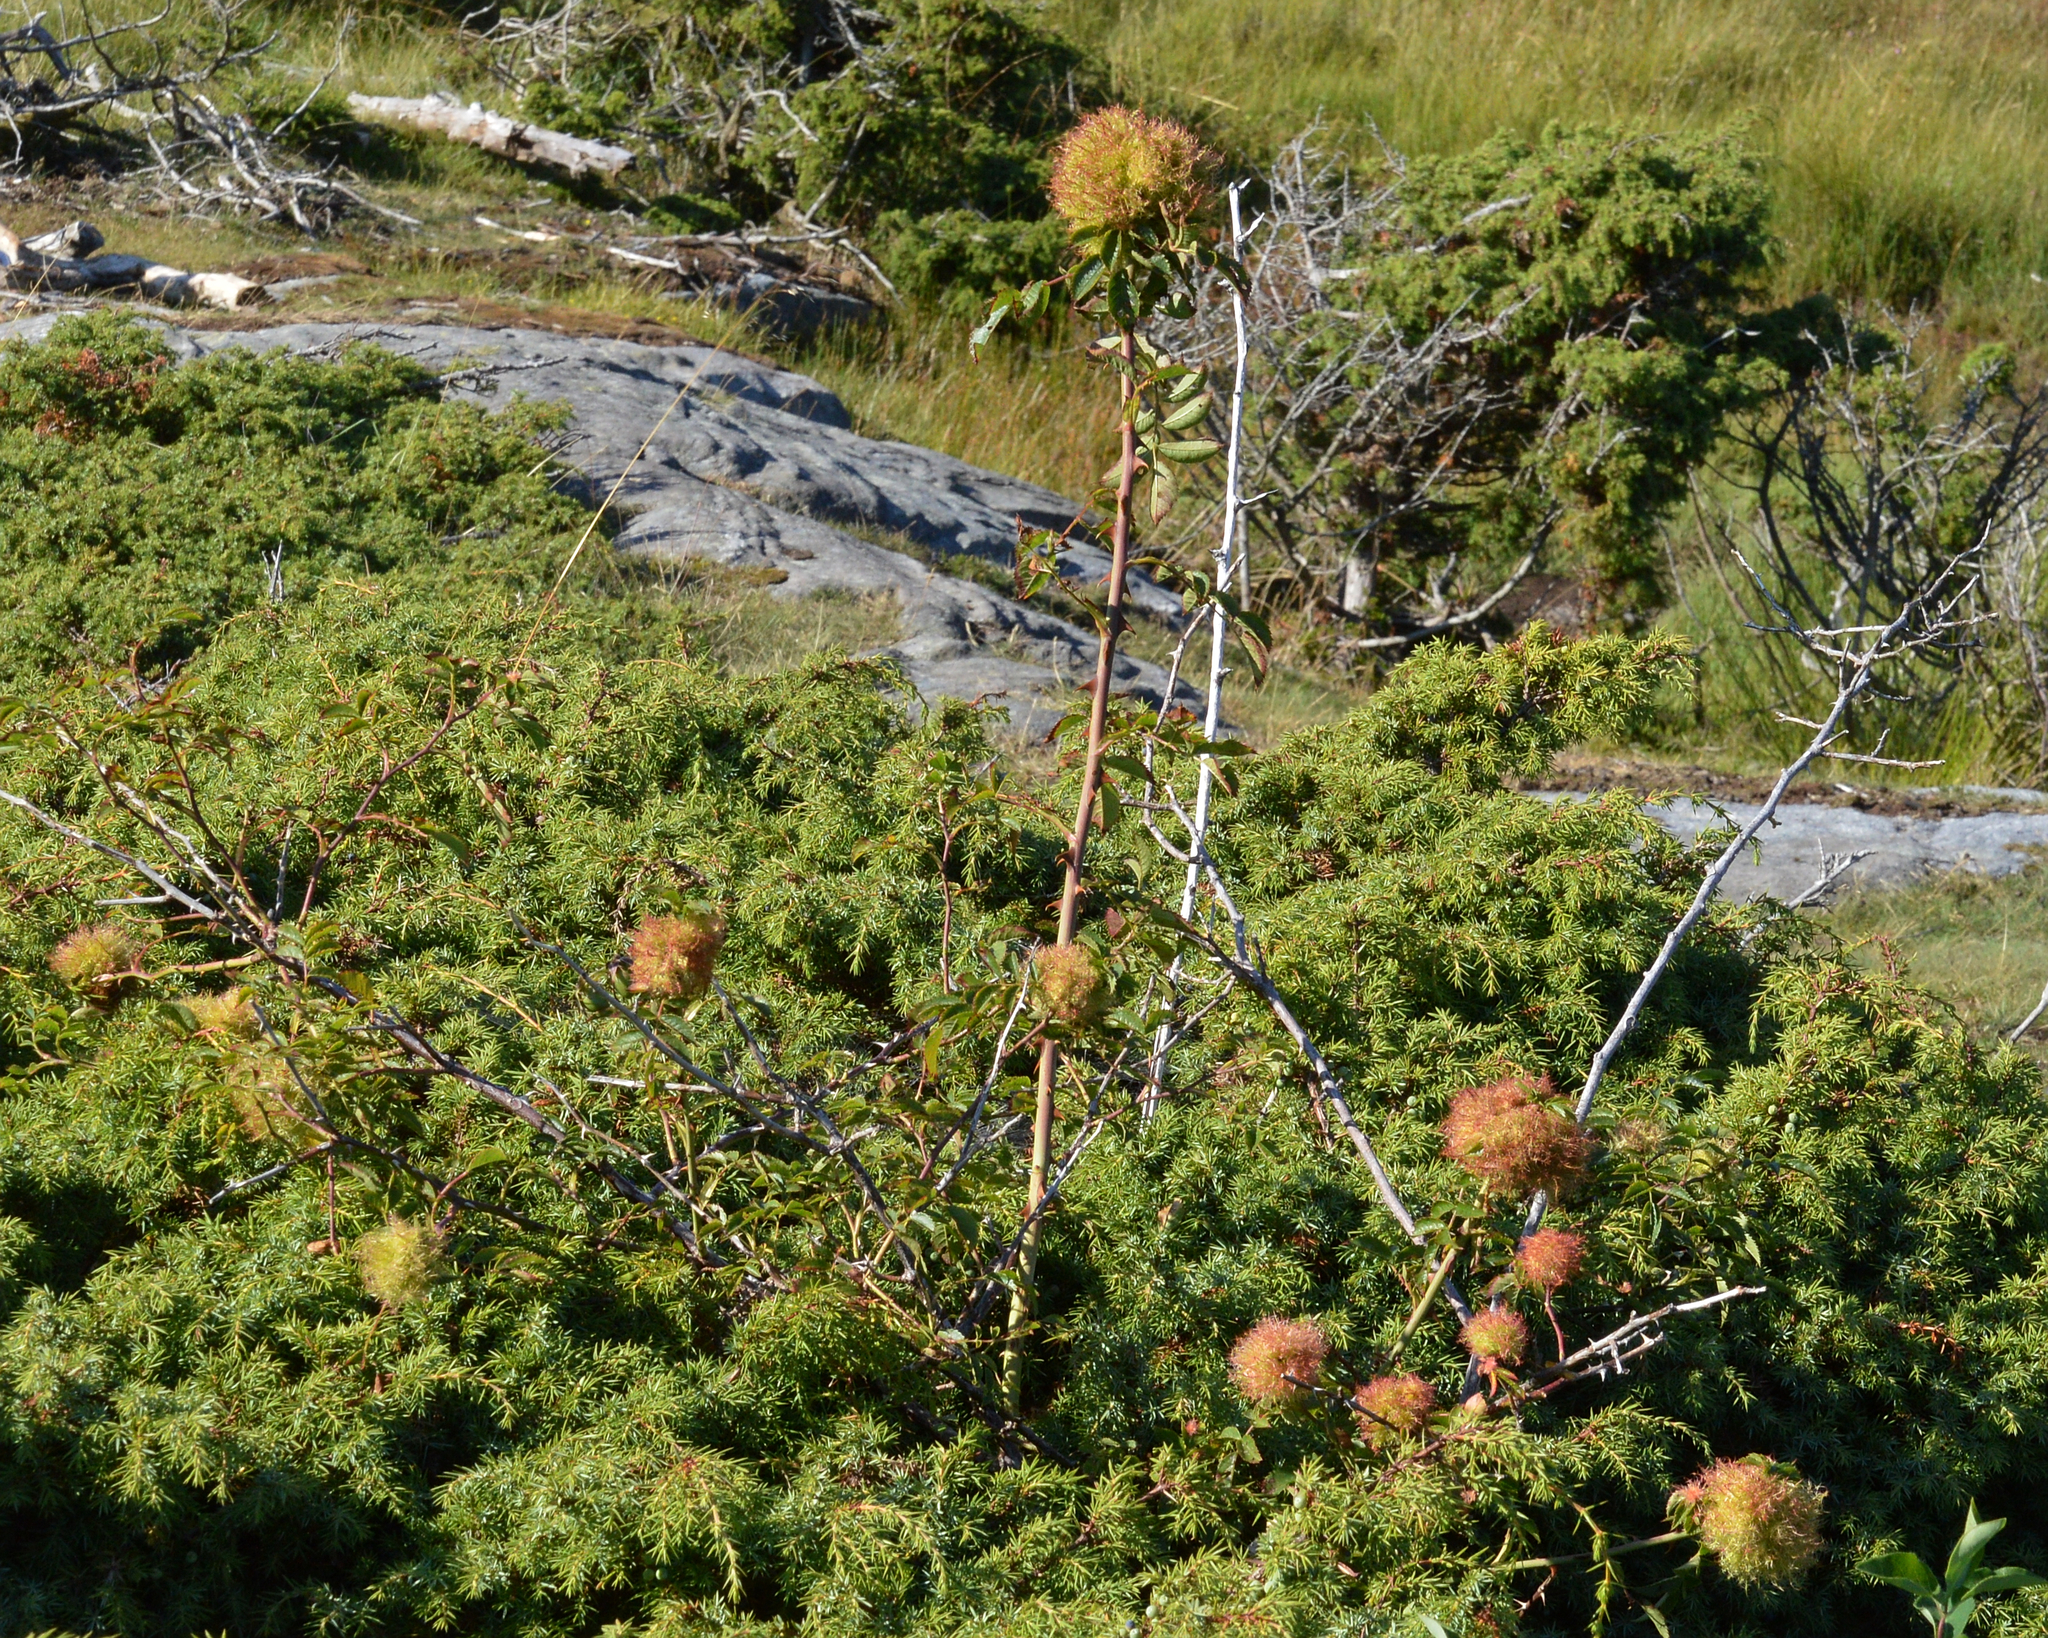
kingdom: Animalia
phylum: Arthropoda
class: Insecta
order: Hymenoptera
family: Cynipidae
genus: Diplolepis
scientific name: Diplolepis rosae
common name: Bedeguar gall
